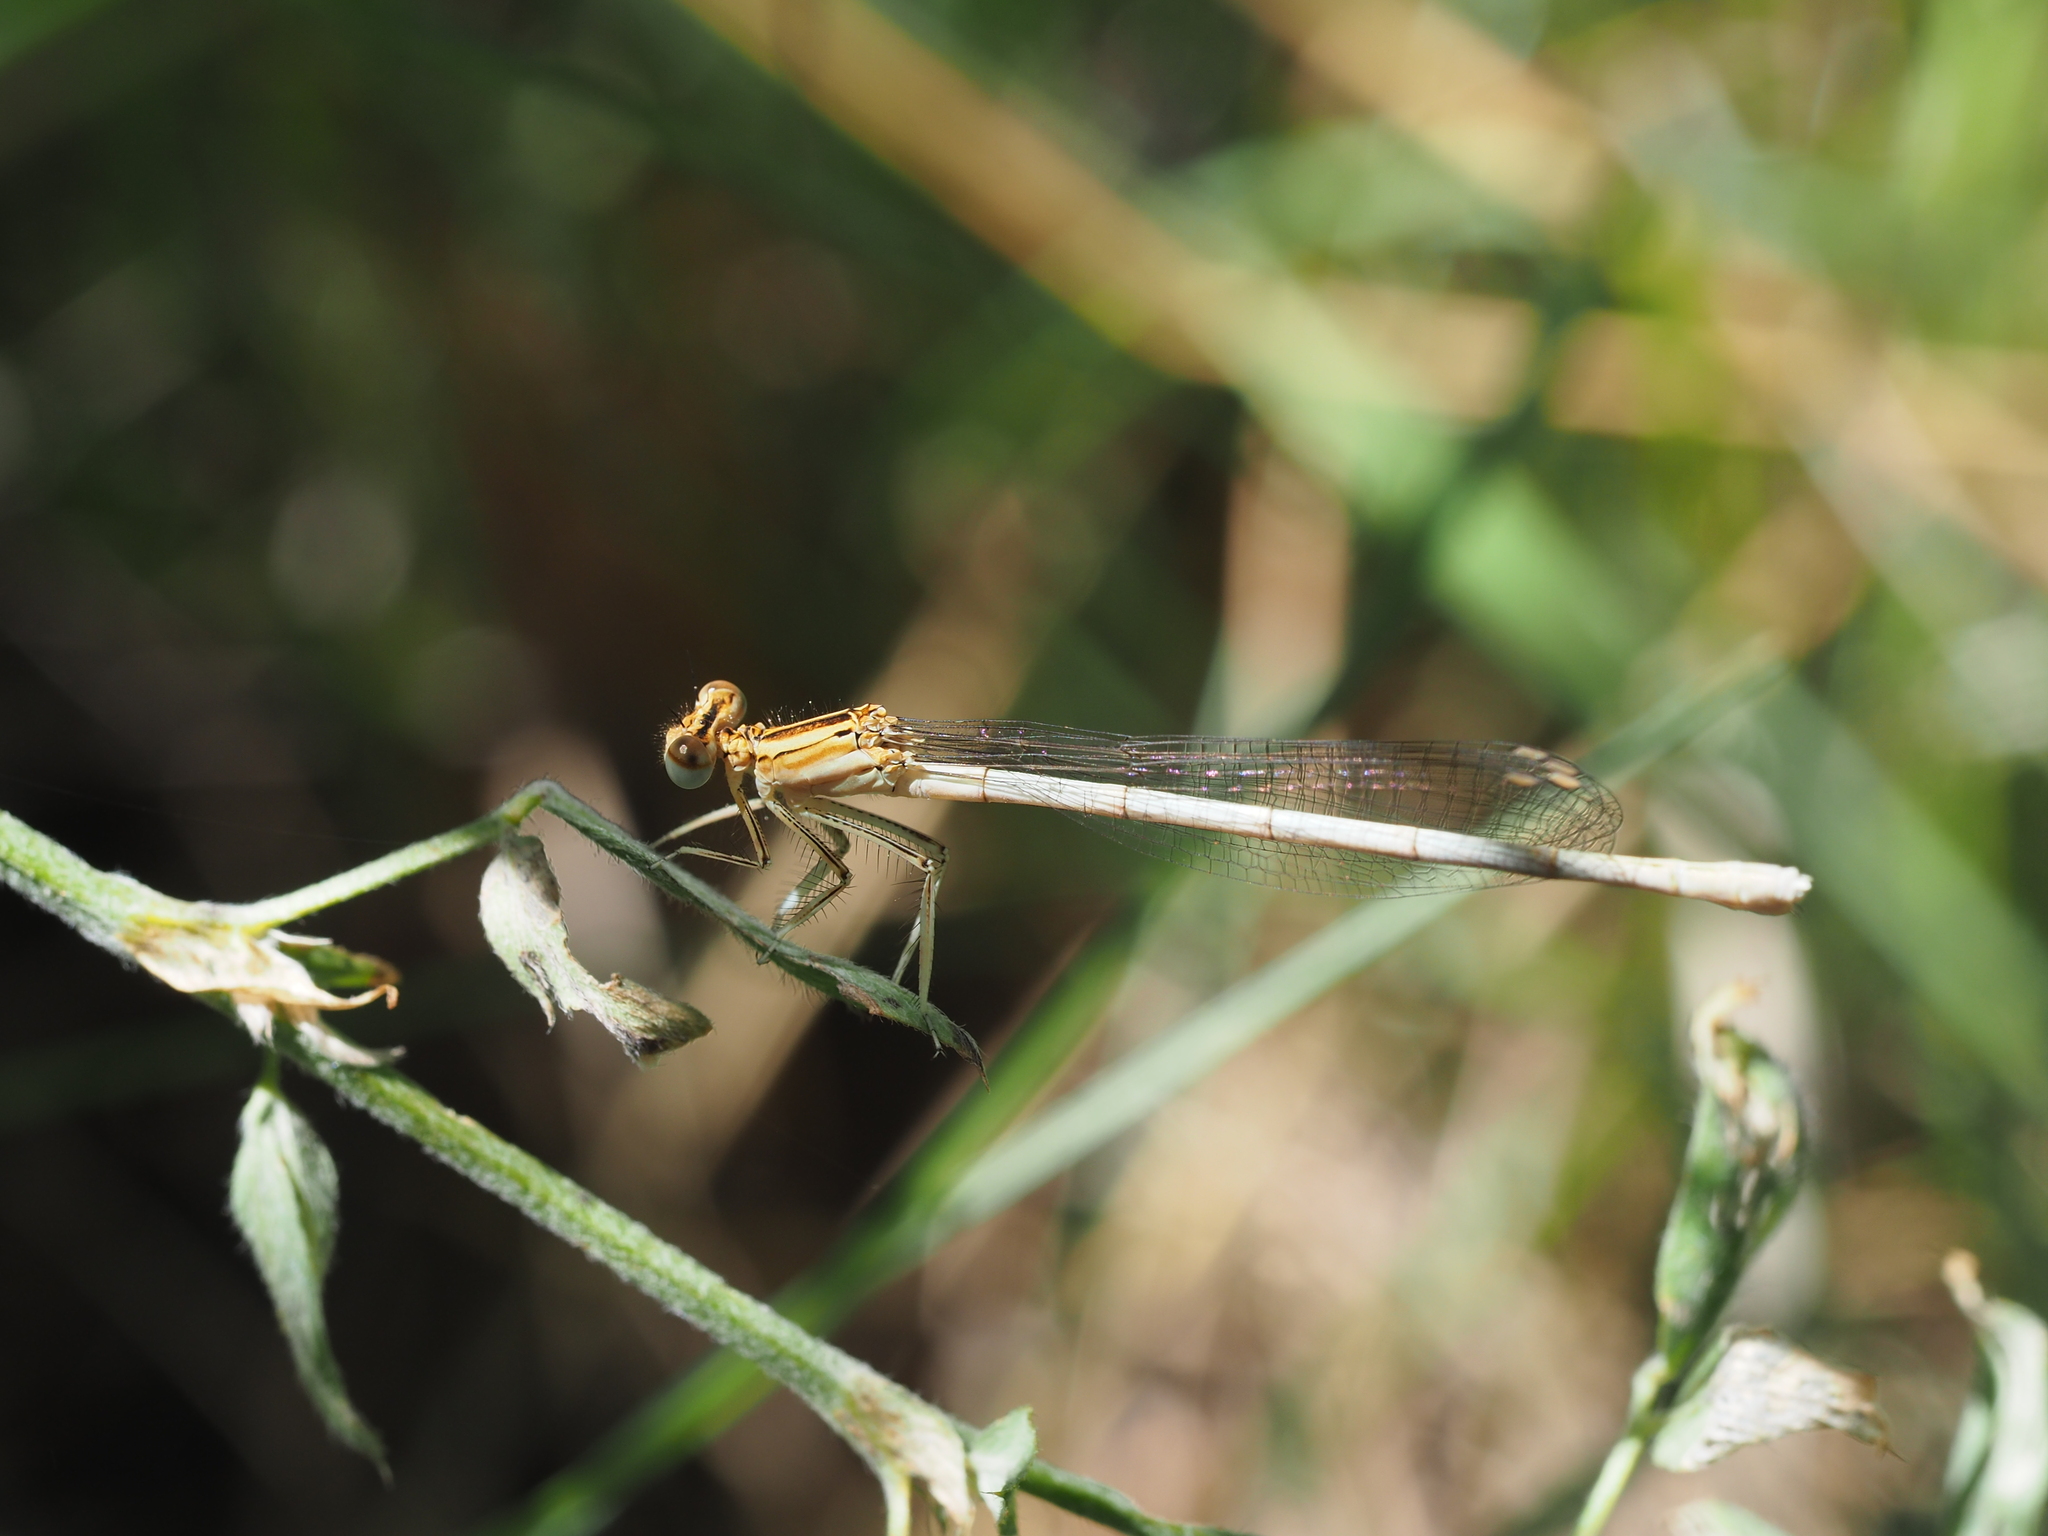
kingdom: Animalia
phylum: Arthropoda
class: Insecta
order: Odonata
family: Platycnemididae
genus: Platycnemis
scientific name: Platycnemis pennipes
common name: White-legged damselfly
